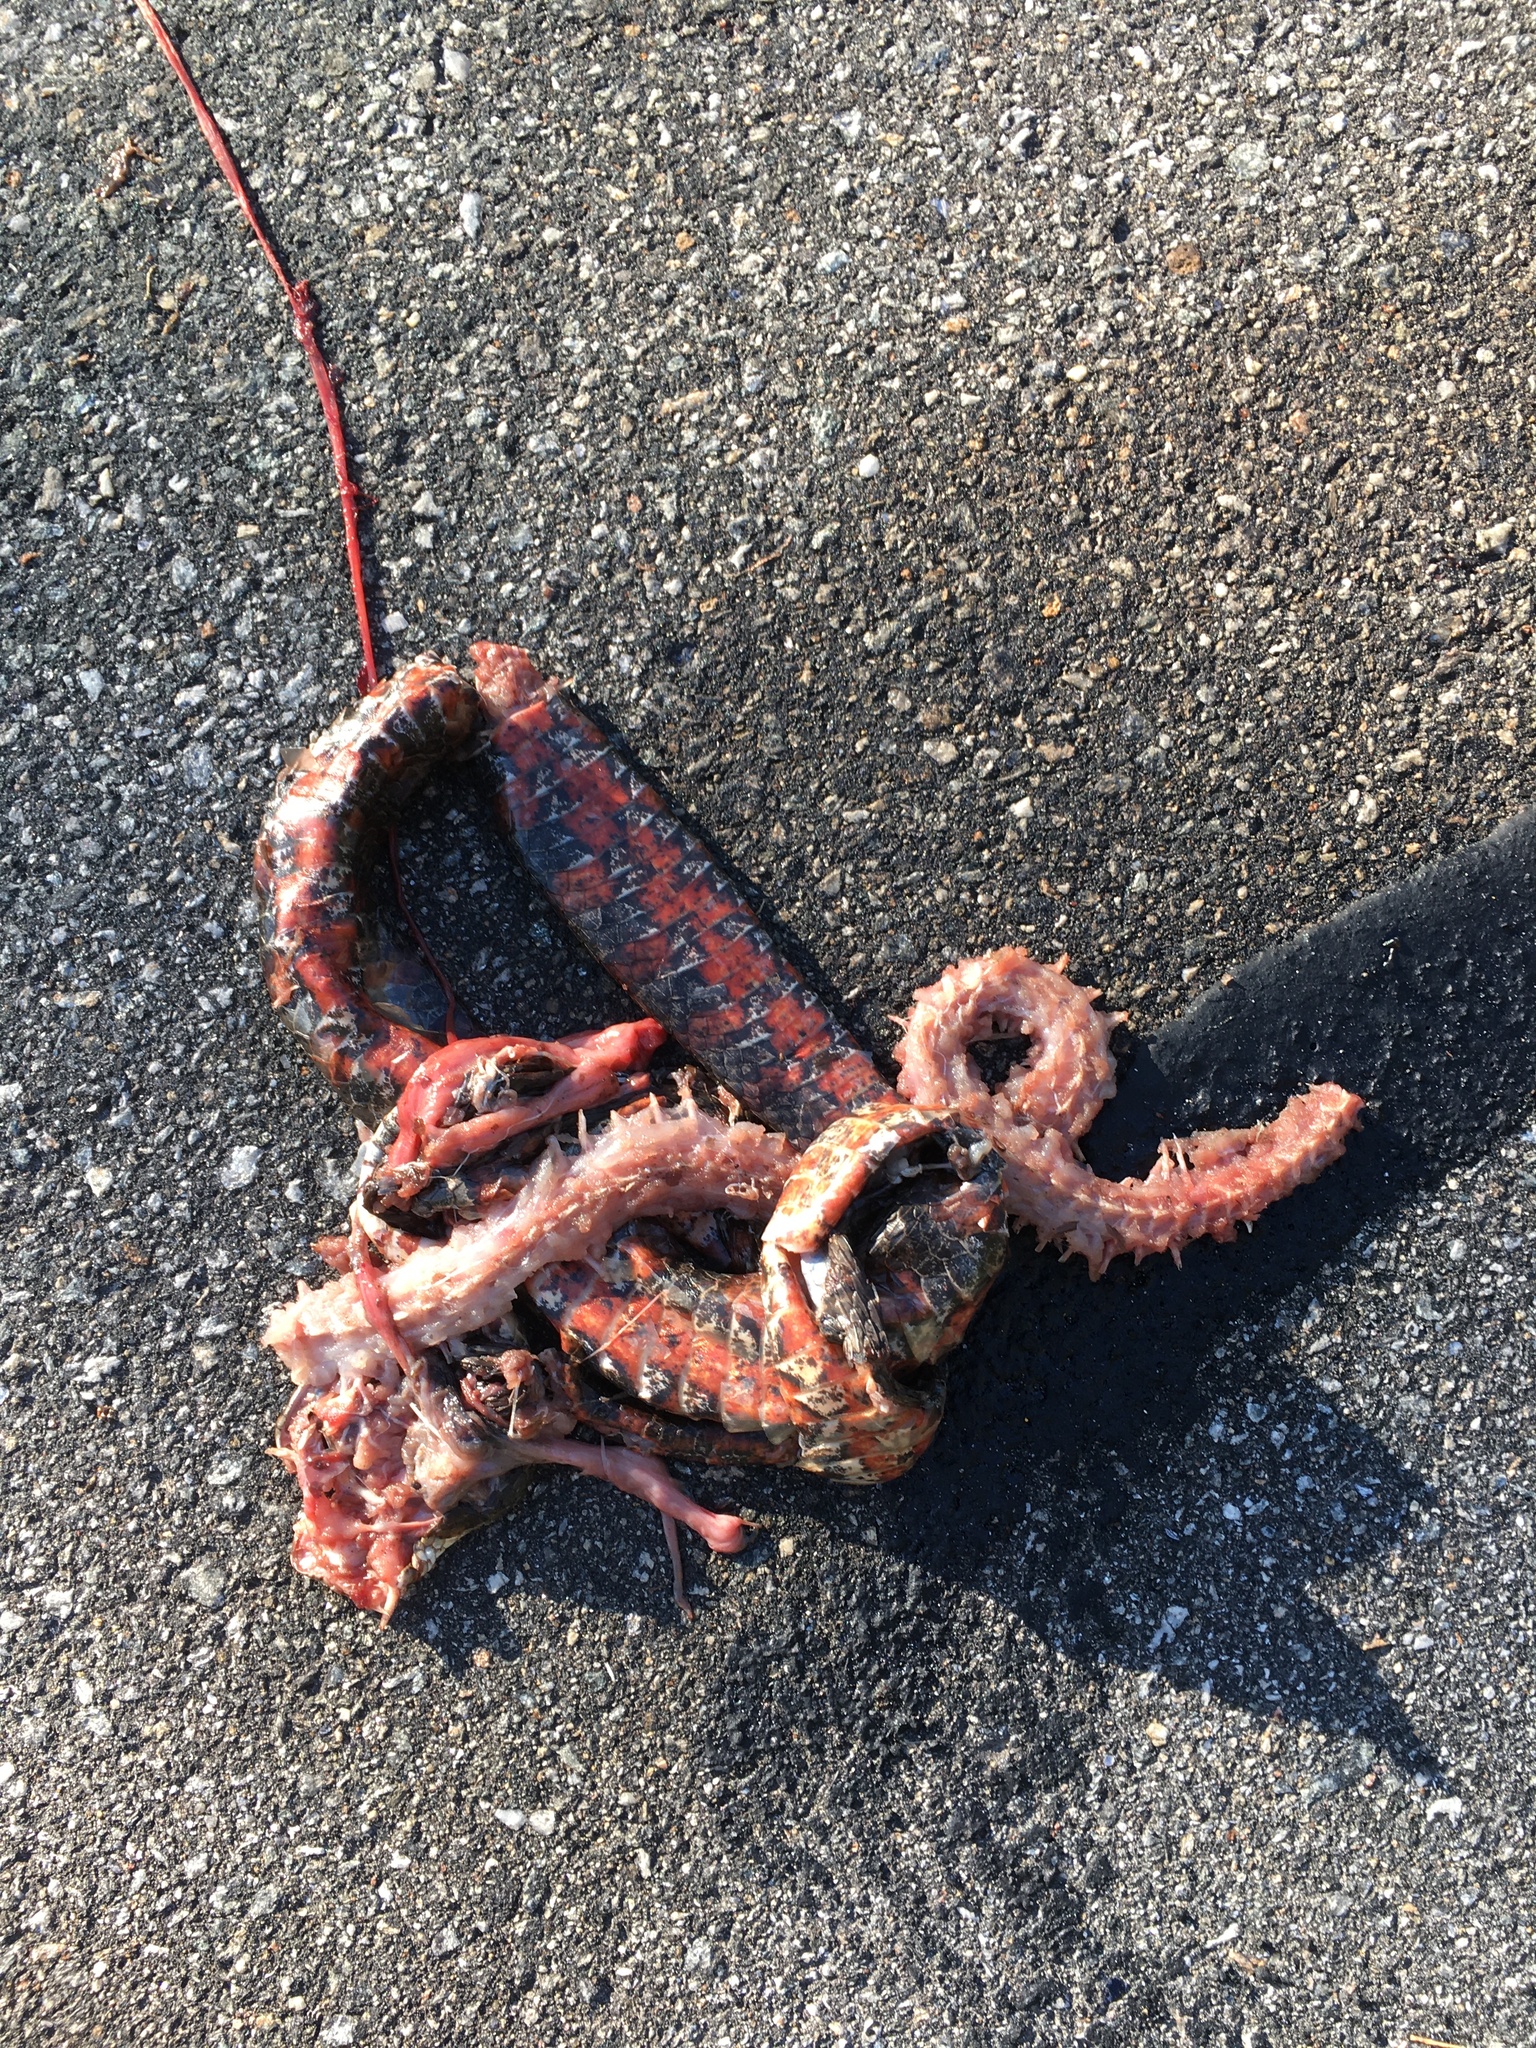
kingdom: Animalia
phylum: Chordata
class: Squamata
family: Colubridae
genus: Nerodia
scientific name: Nerodia sipedon
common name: Northern water snake
